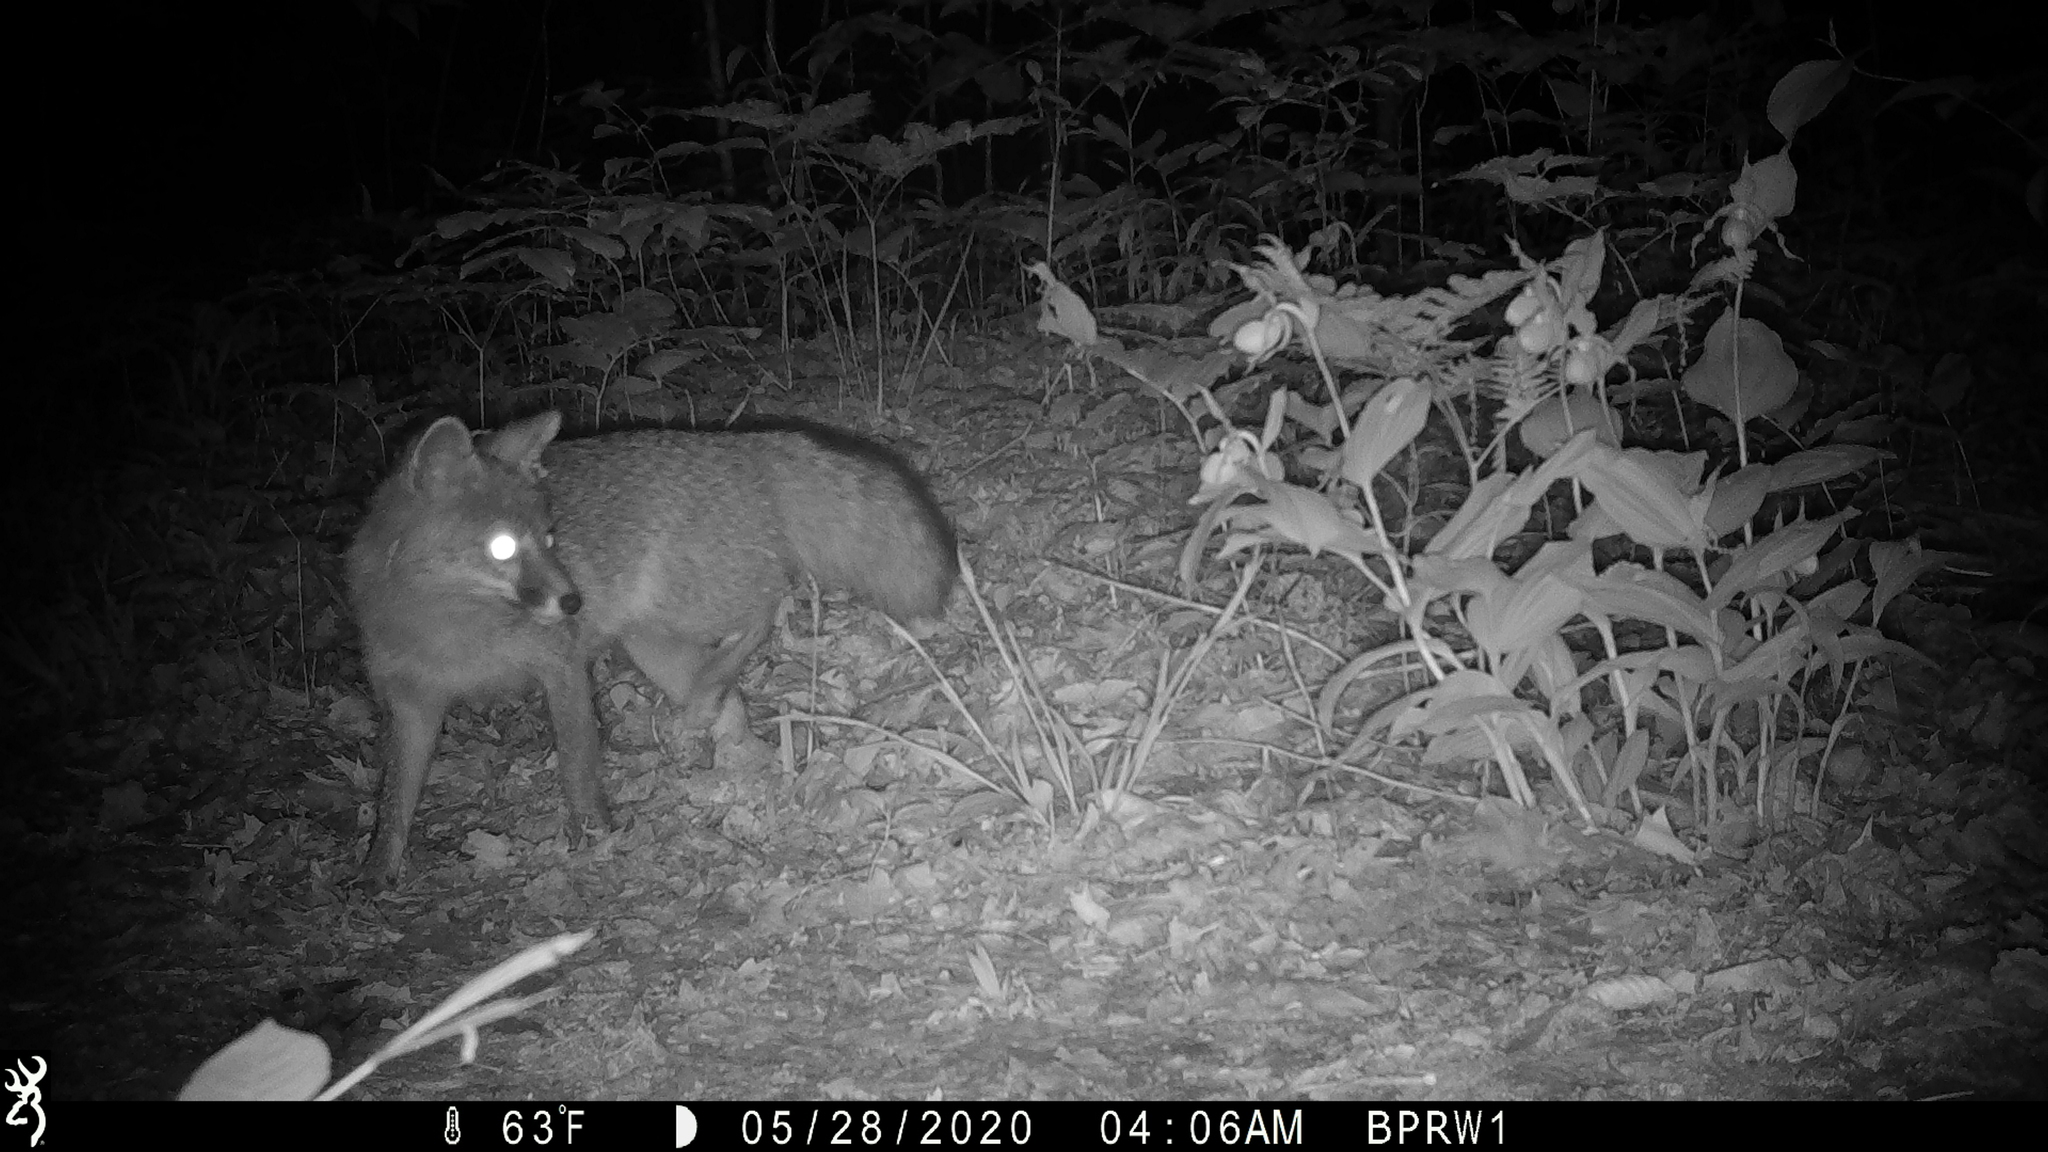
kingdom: Animalia
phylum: Chordata
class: Mammalia
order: Carnivora
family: Canidae
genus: Urocyon
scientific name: Urocyon cinereoargenteus
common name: Gray fox
